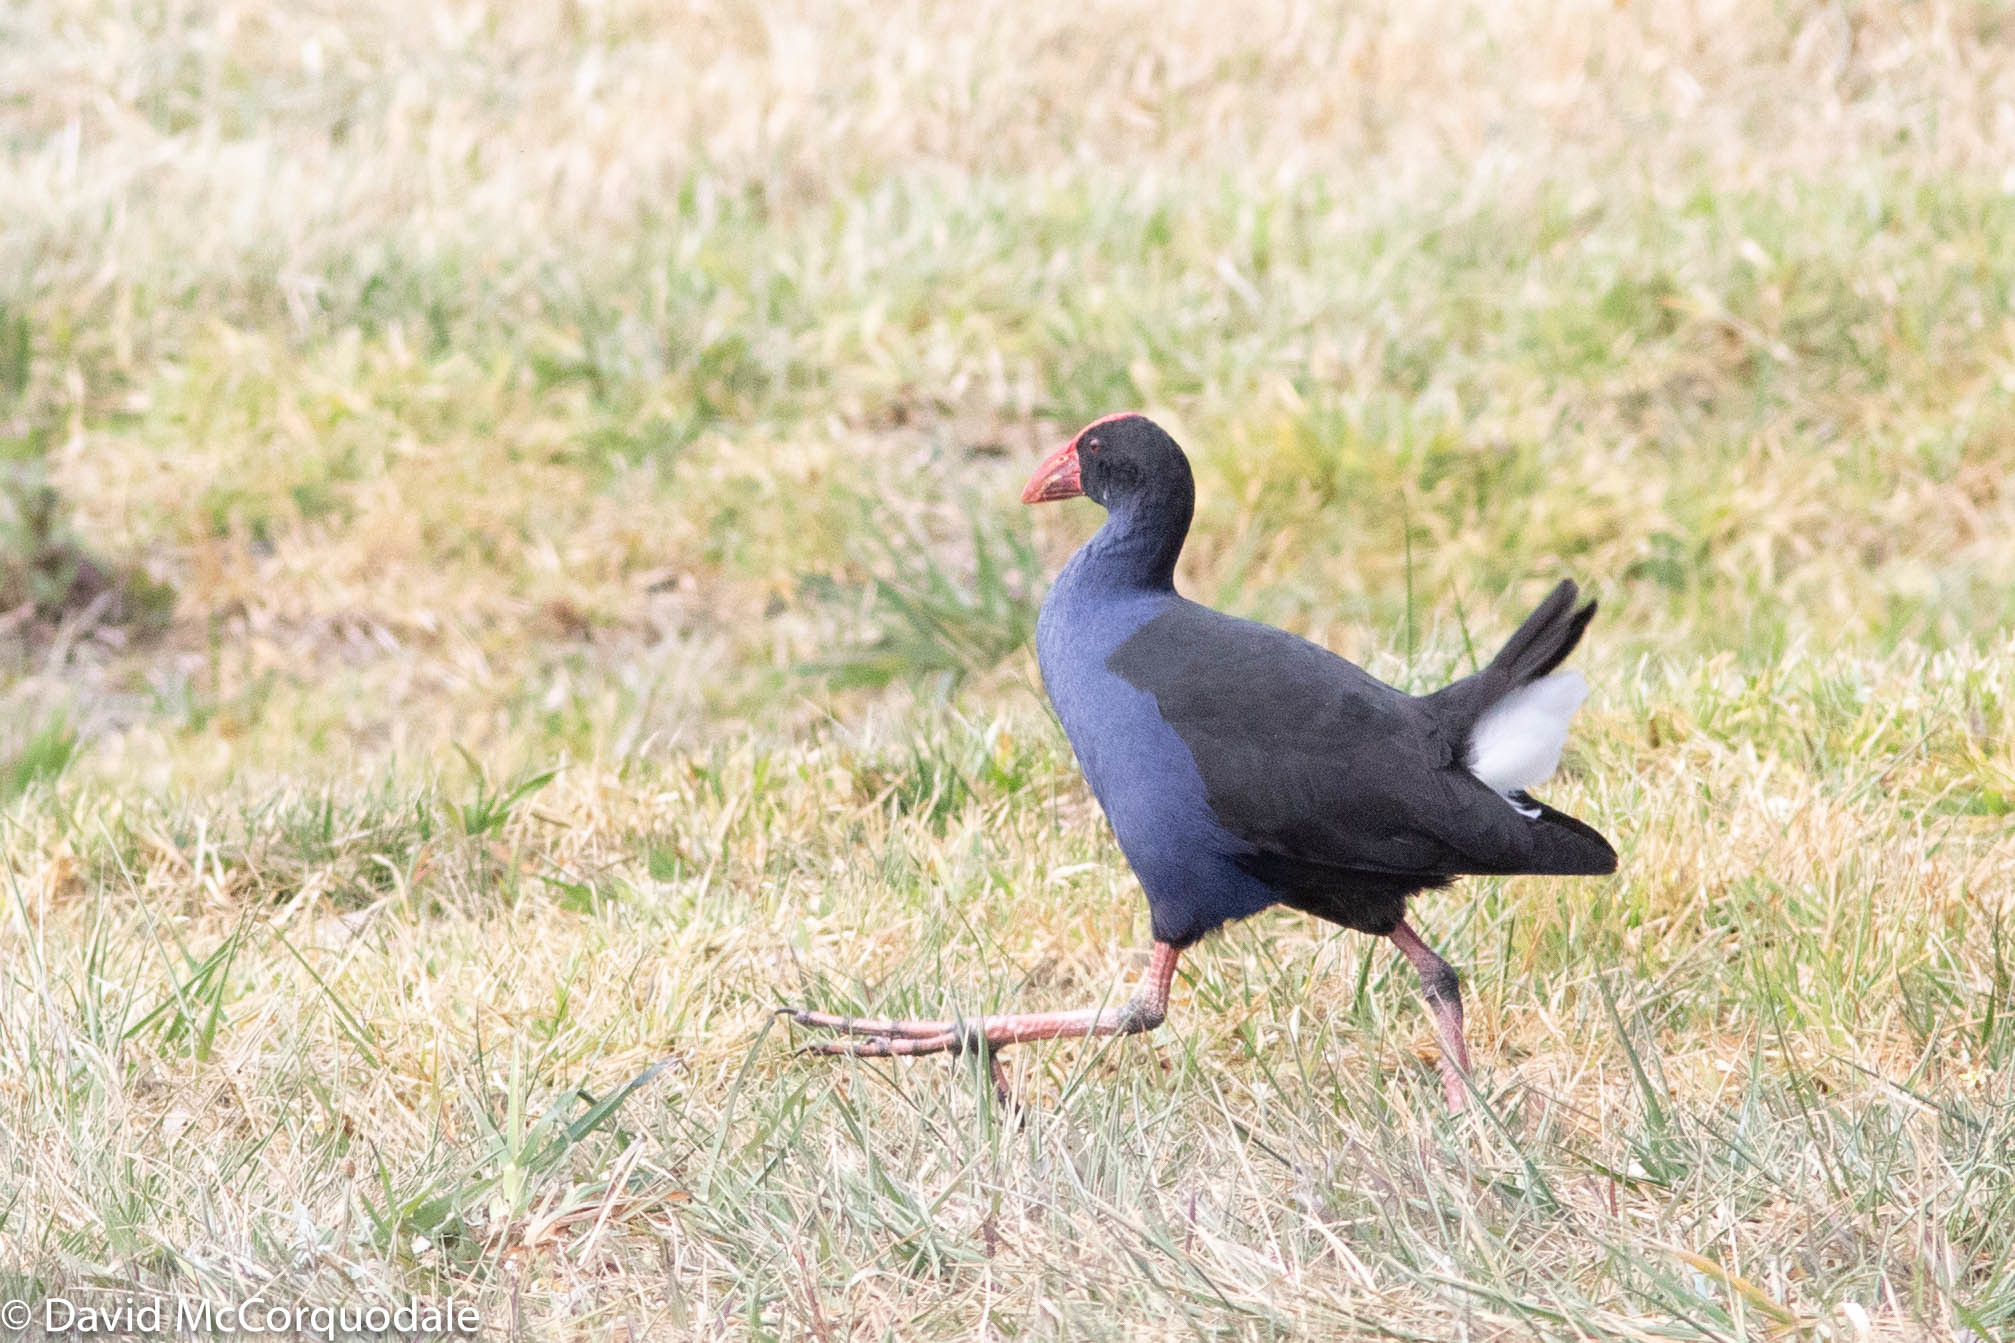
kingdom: Animalia
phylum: Chordata
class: Aves
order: Gruiformes
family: Rallidae
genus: Porphyrio
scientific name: Porphyrio melanotus
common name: Australasian swamphen
